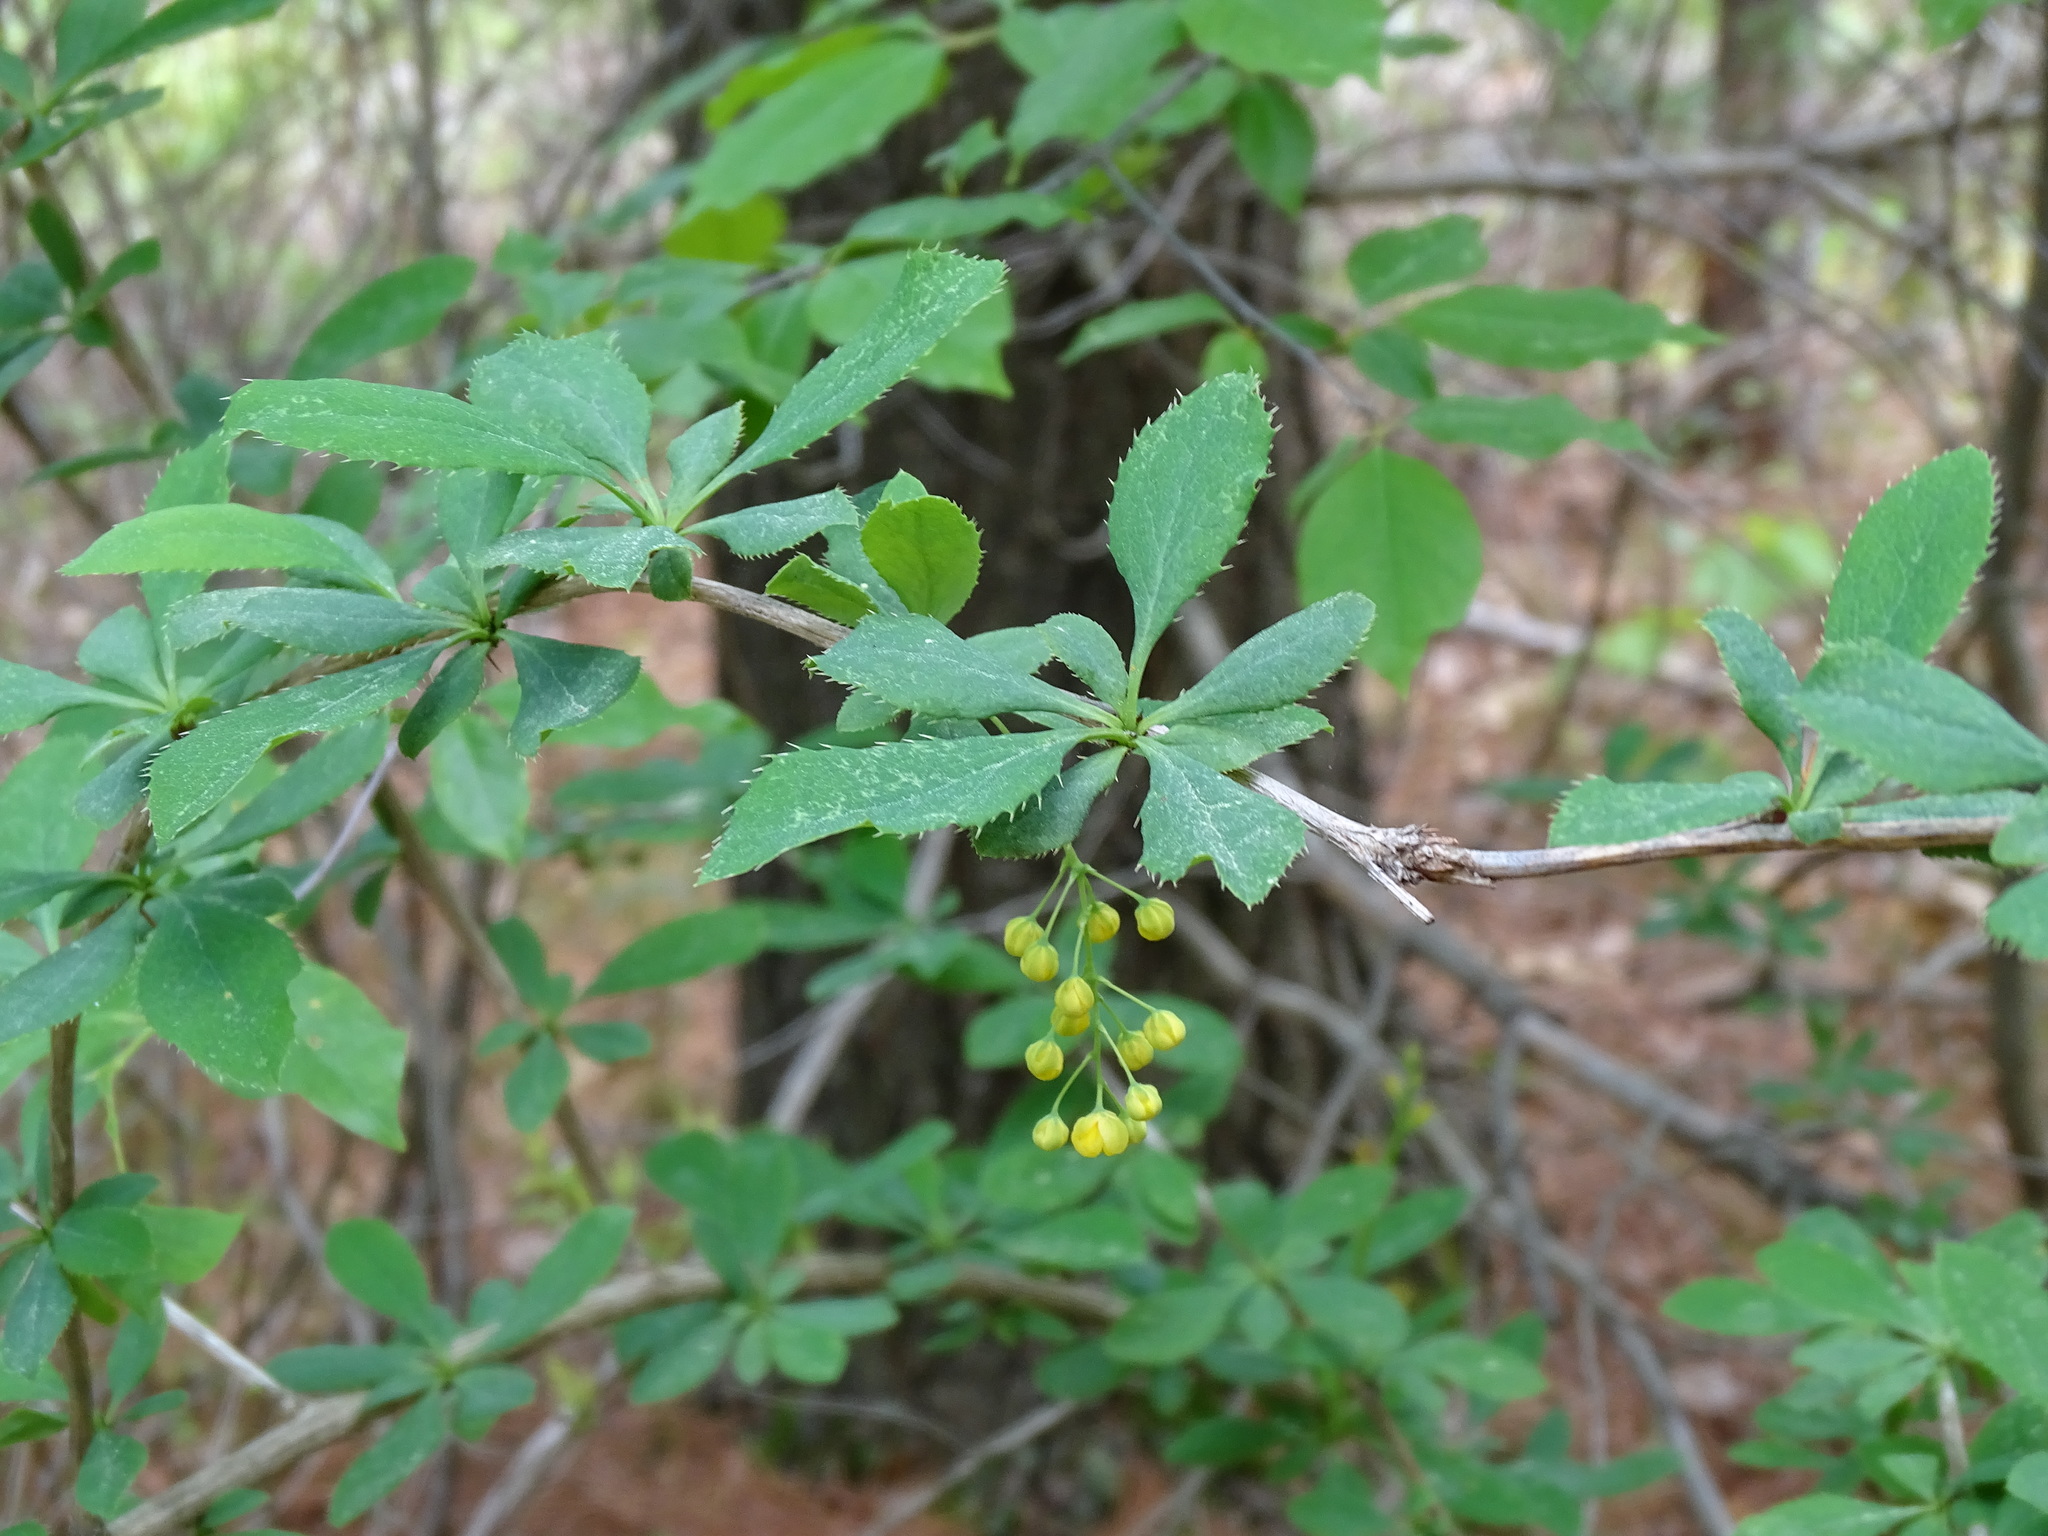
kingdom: Plantae
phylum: Tracheophyta
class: Magnoliopsida
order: Ranunculales
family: Berberidaceae
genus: Berberis
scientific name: Berberis vulgaris
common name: Barberry
